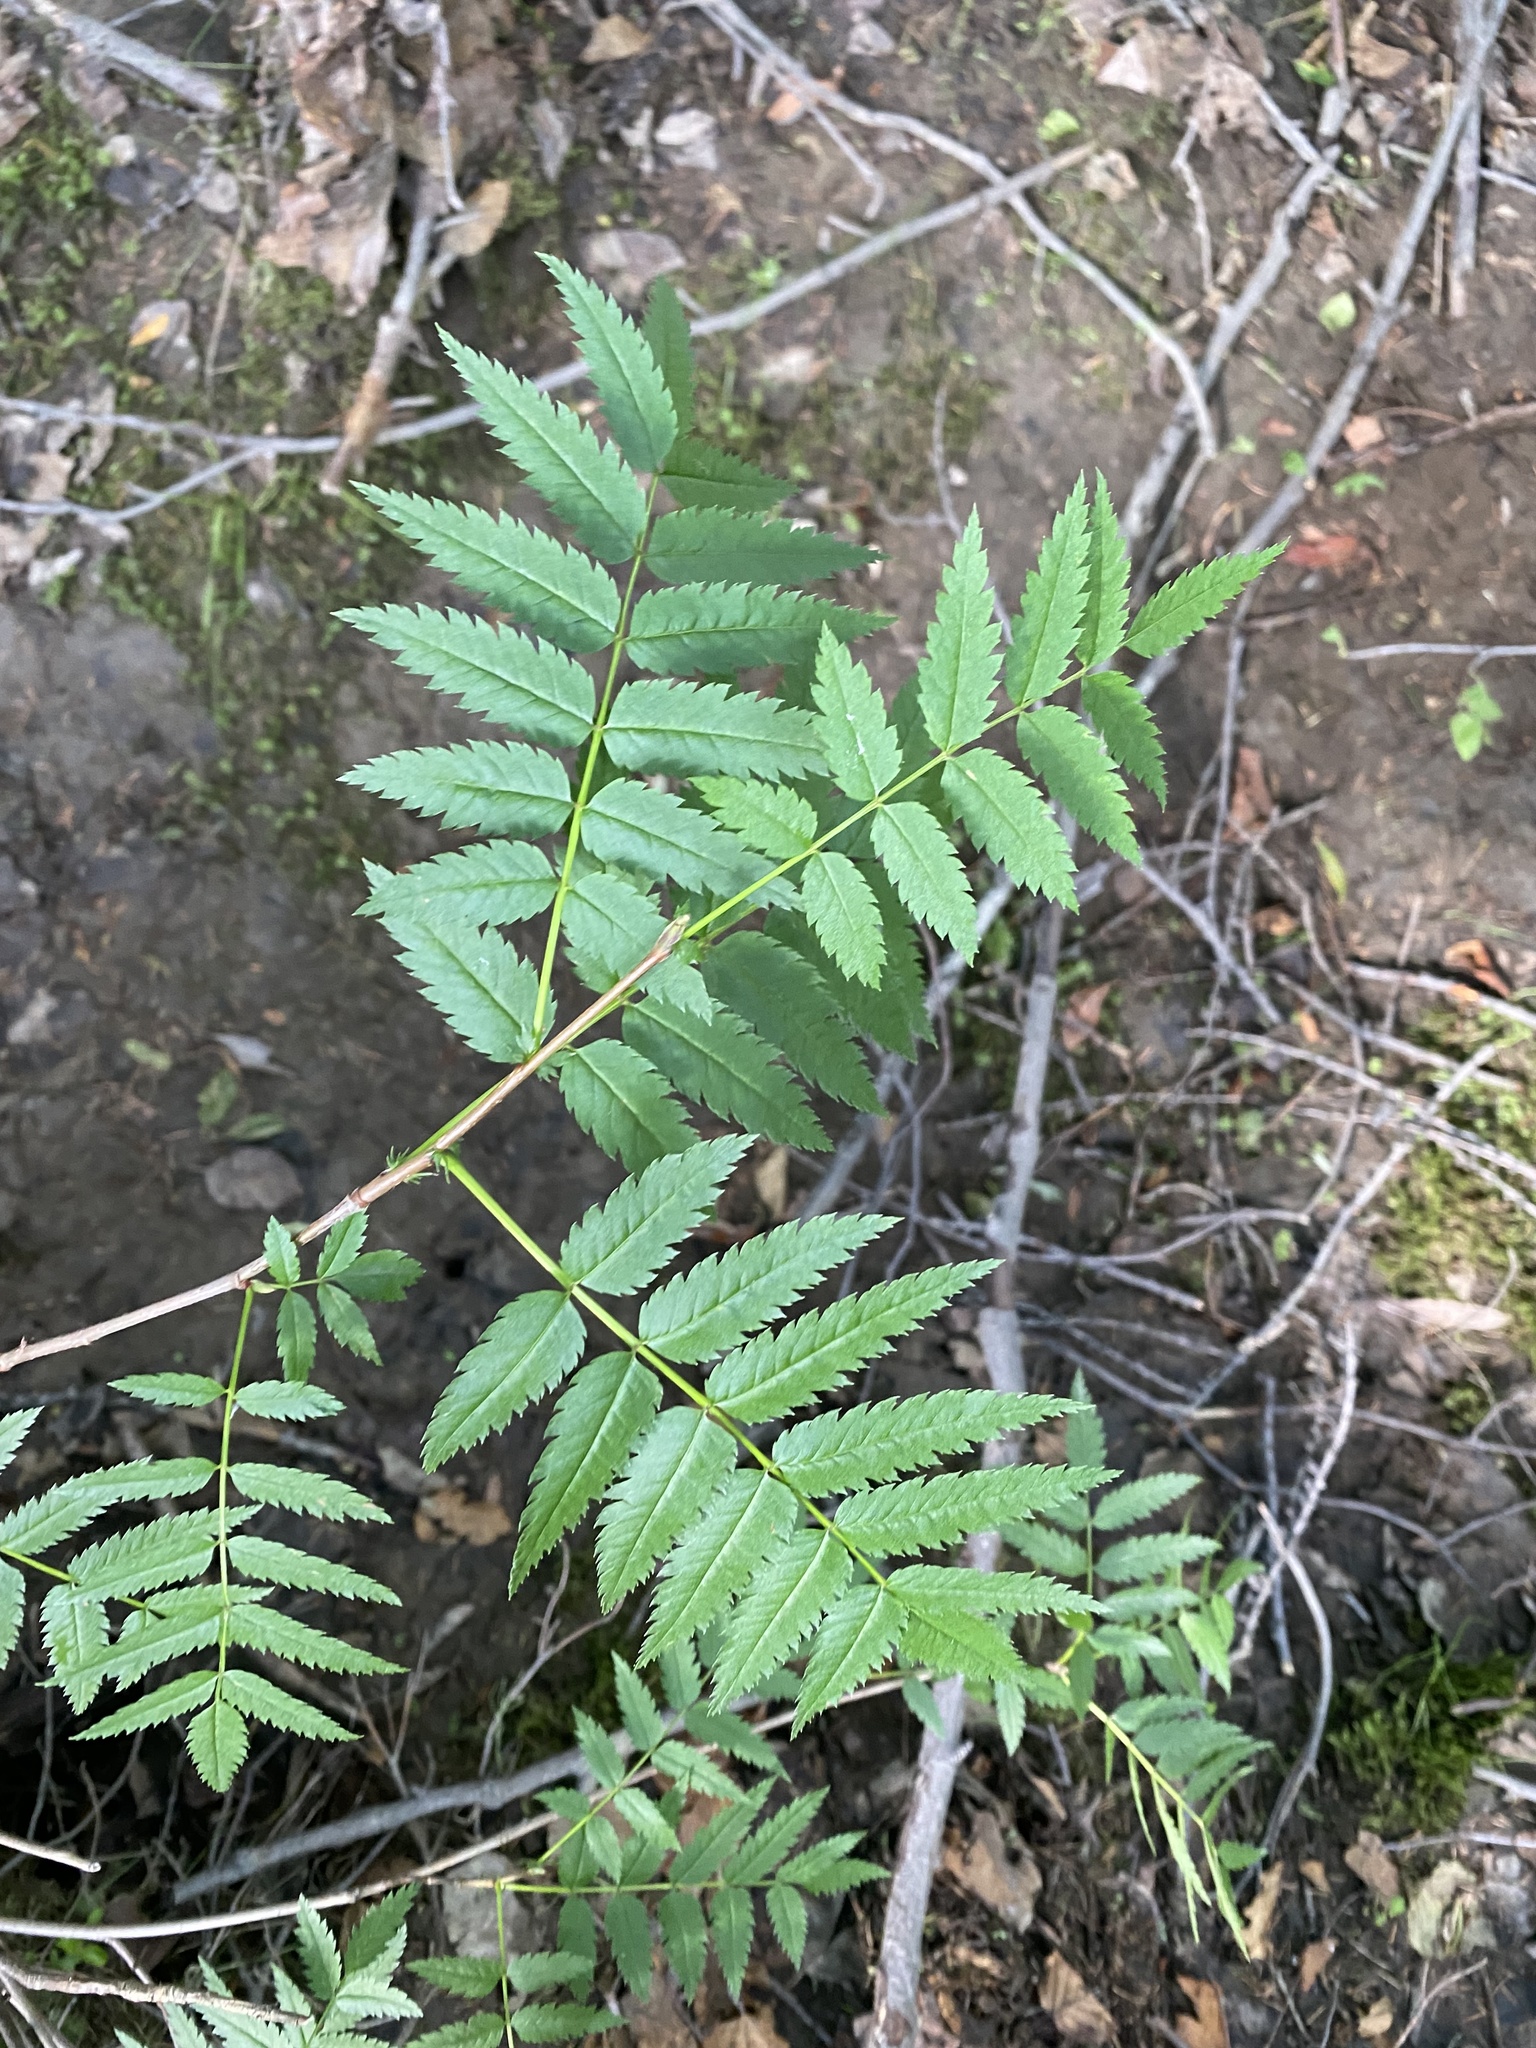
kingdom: Plantae
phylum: Tracheophyta
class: Magnoliopsida
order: Rosales
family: Rosaceae
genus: Sorbus
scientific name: Sorbus aucuparia
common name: Rowan
